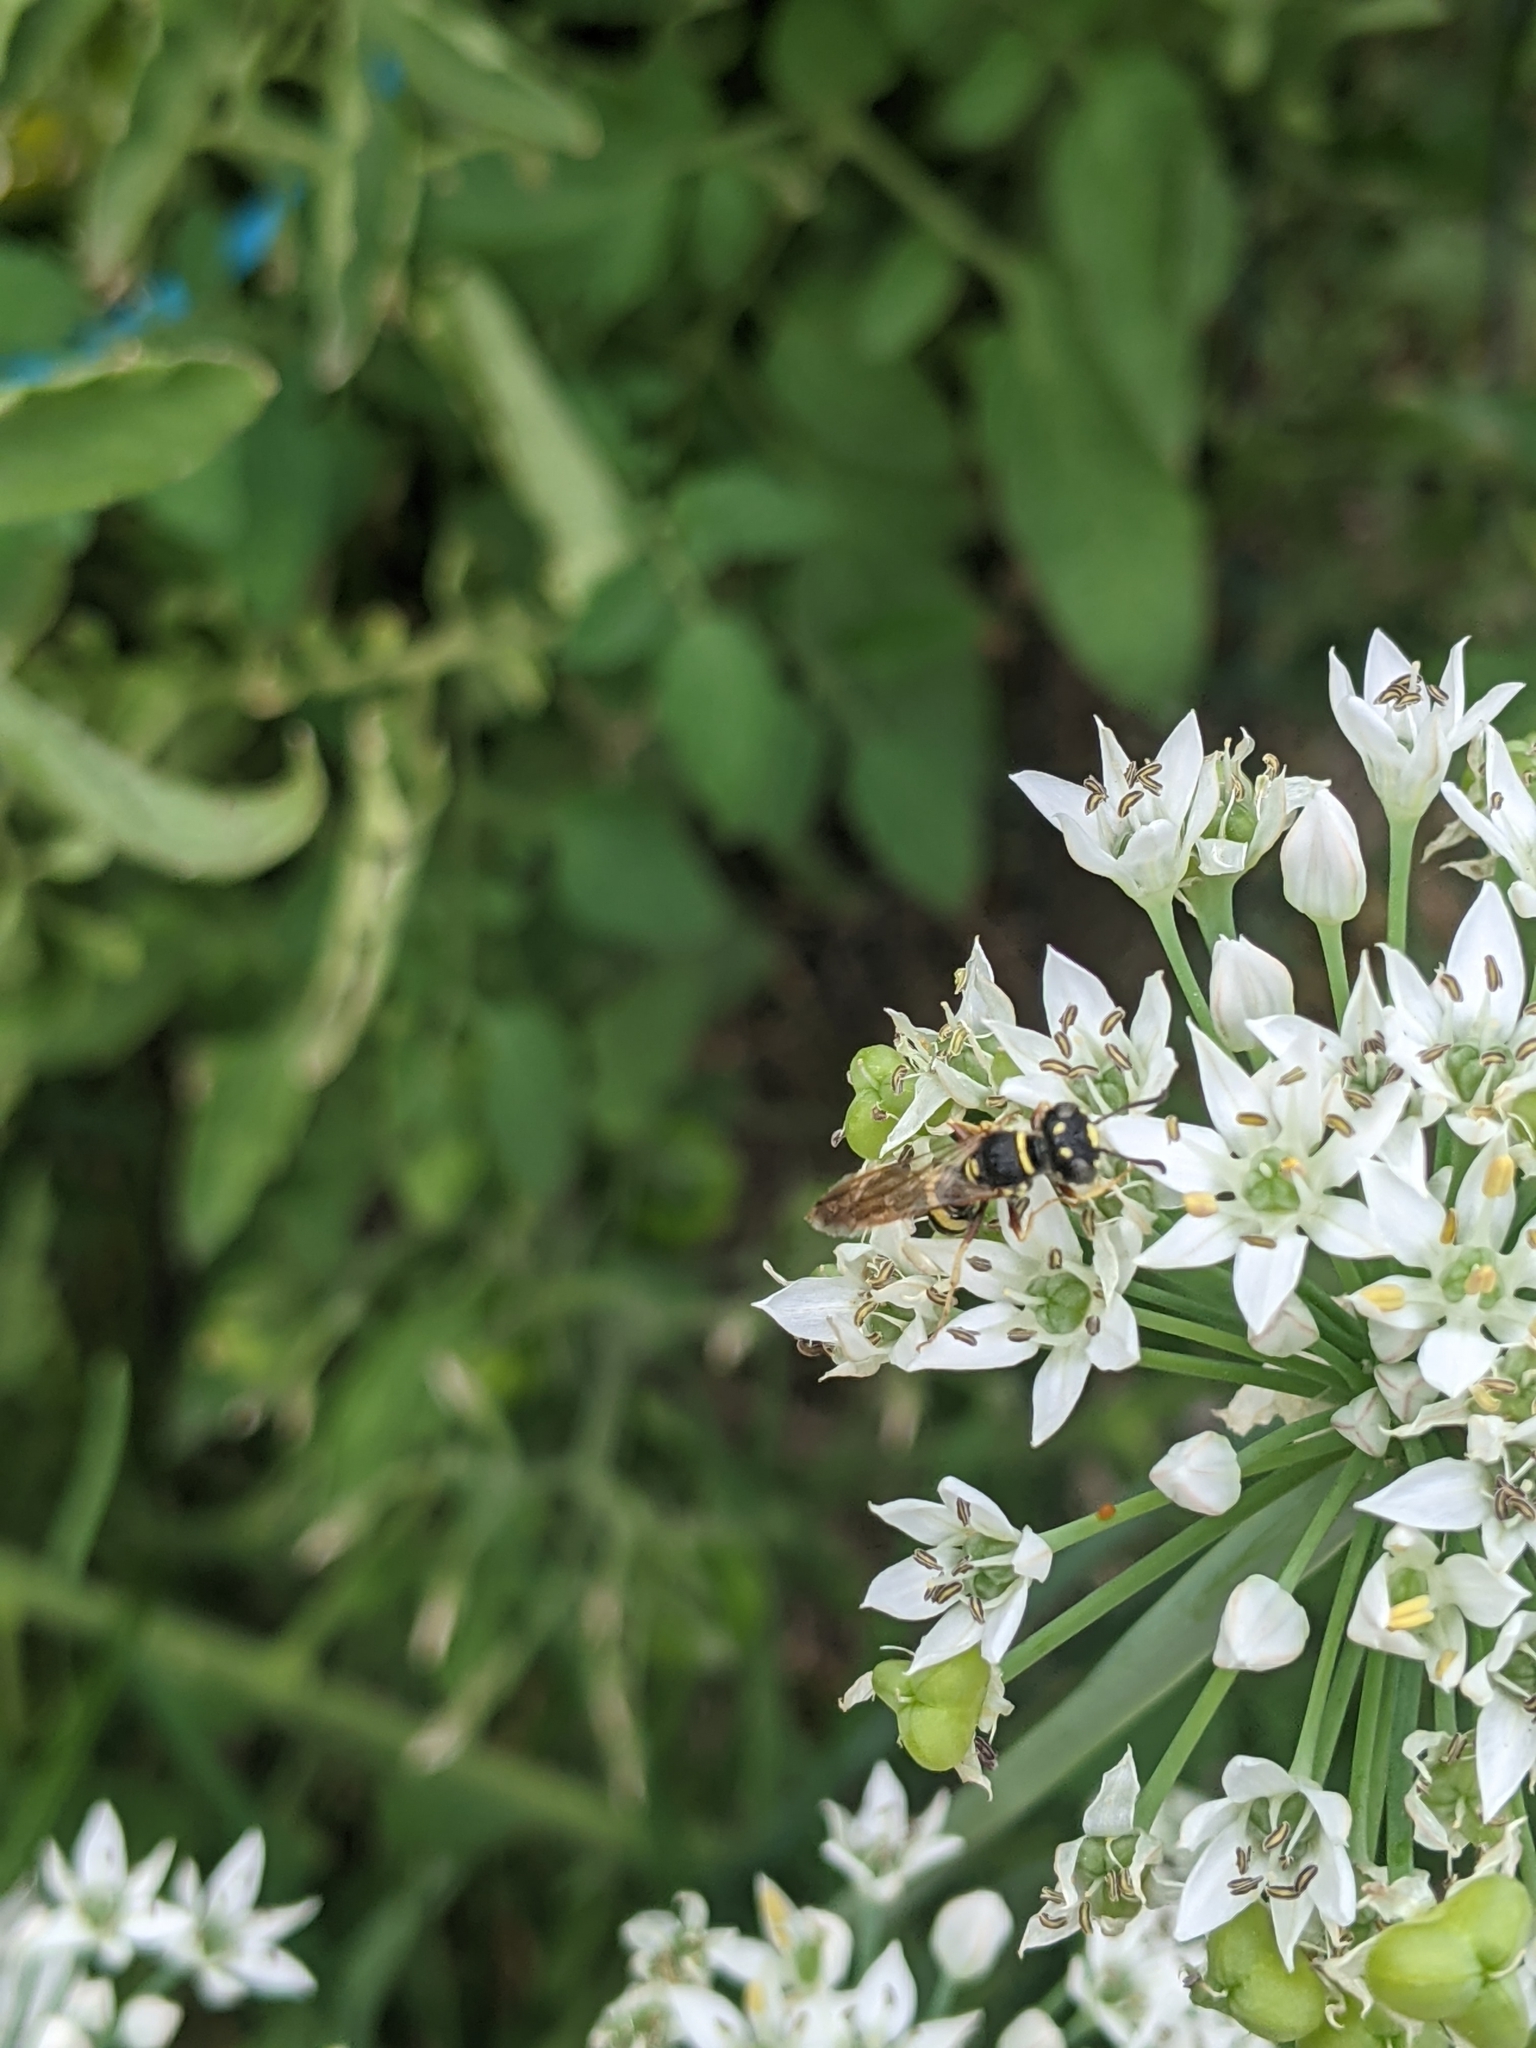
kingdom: Animalia
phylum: Arthropoda
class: Insecta
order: Hymenoptera
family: Crabronidae
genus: Philanthus
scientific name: Philanthus gibbosus
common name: Humped beewolf
